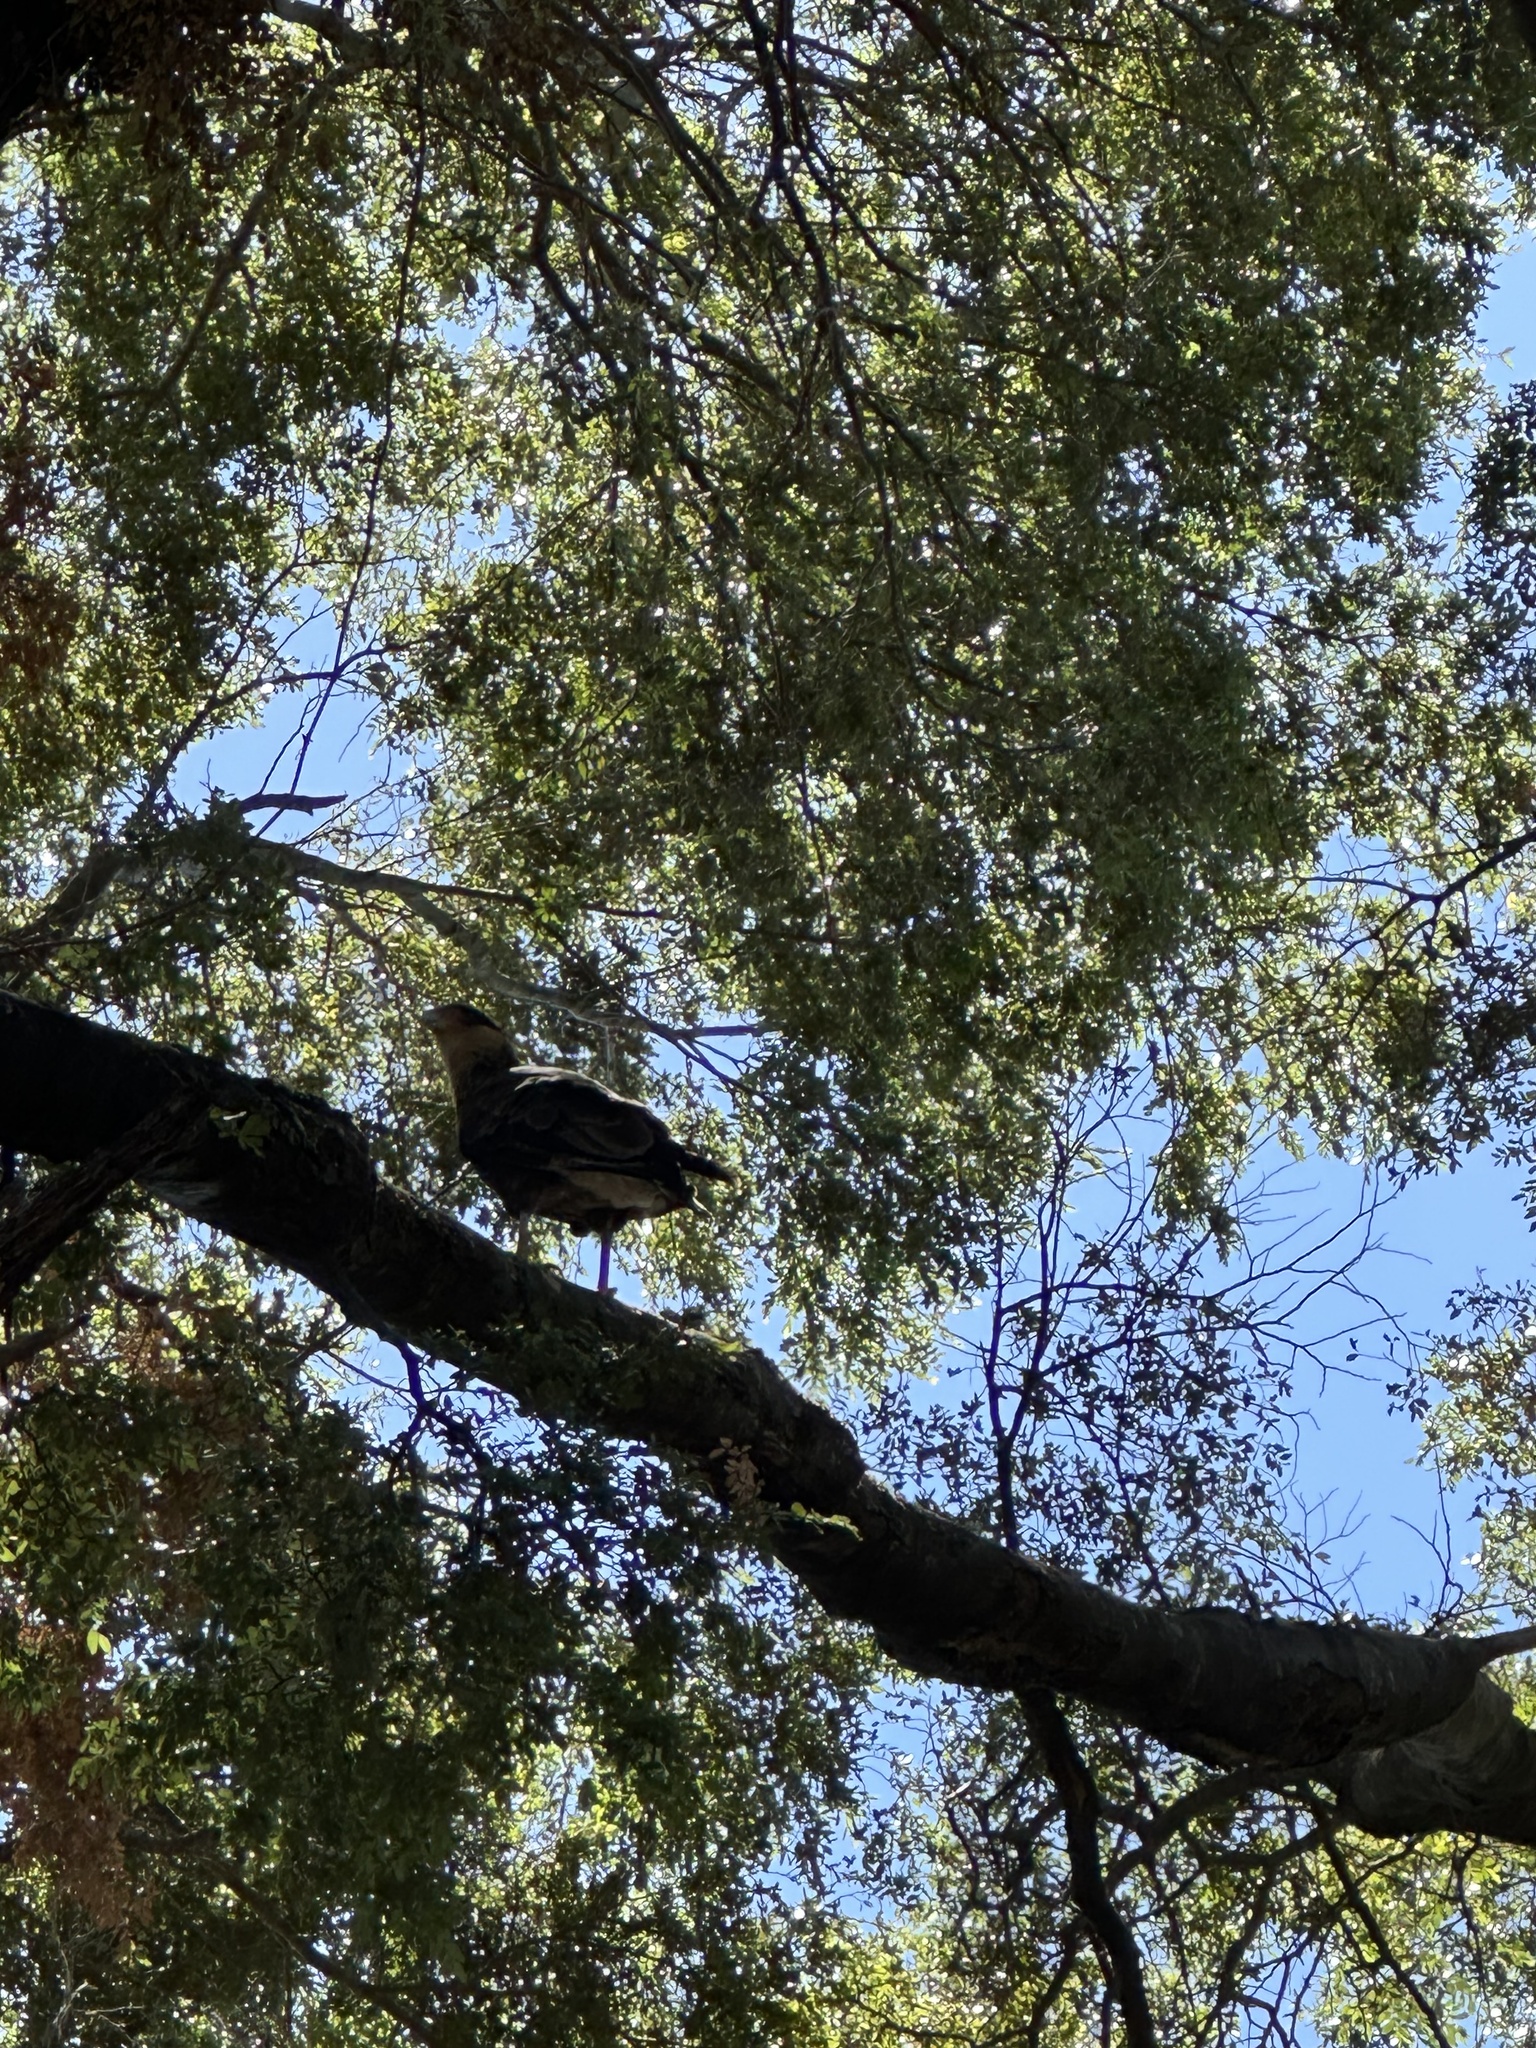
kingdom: Animalia
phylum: Chordata
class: Aves
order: Falconiformes
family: Falconidae
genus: Caracara
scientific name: Caracara plancus
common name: Southern caracara
